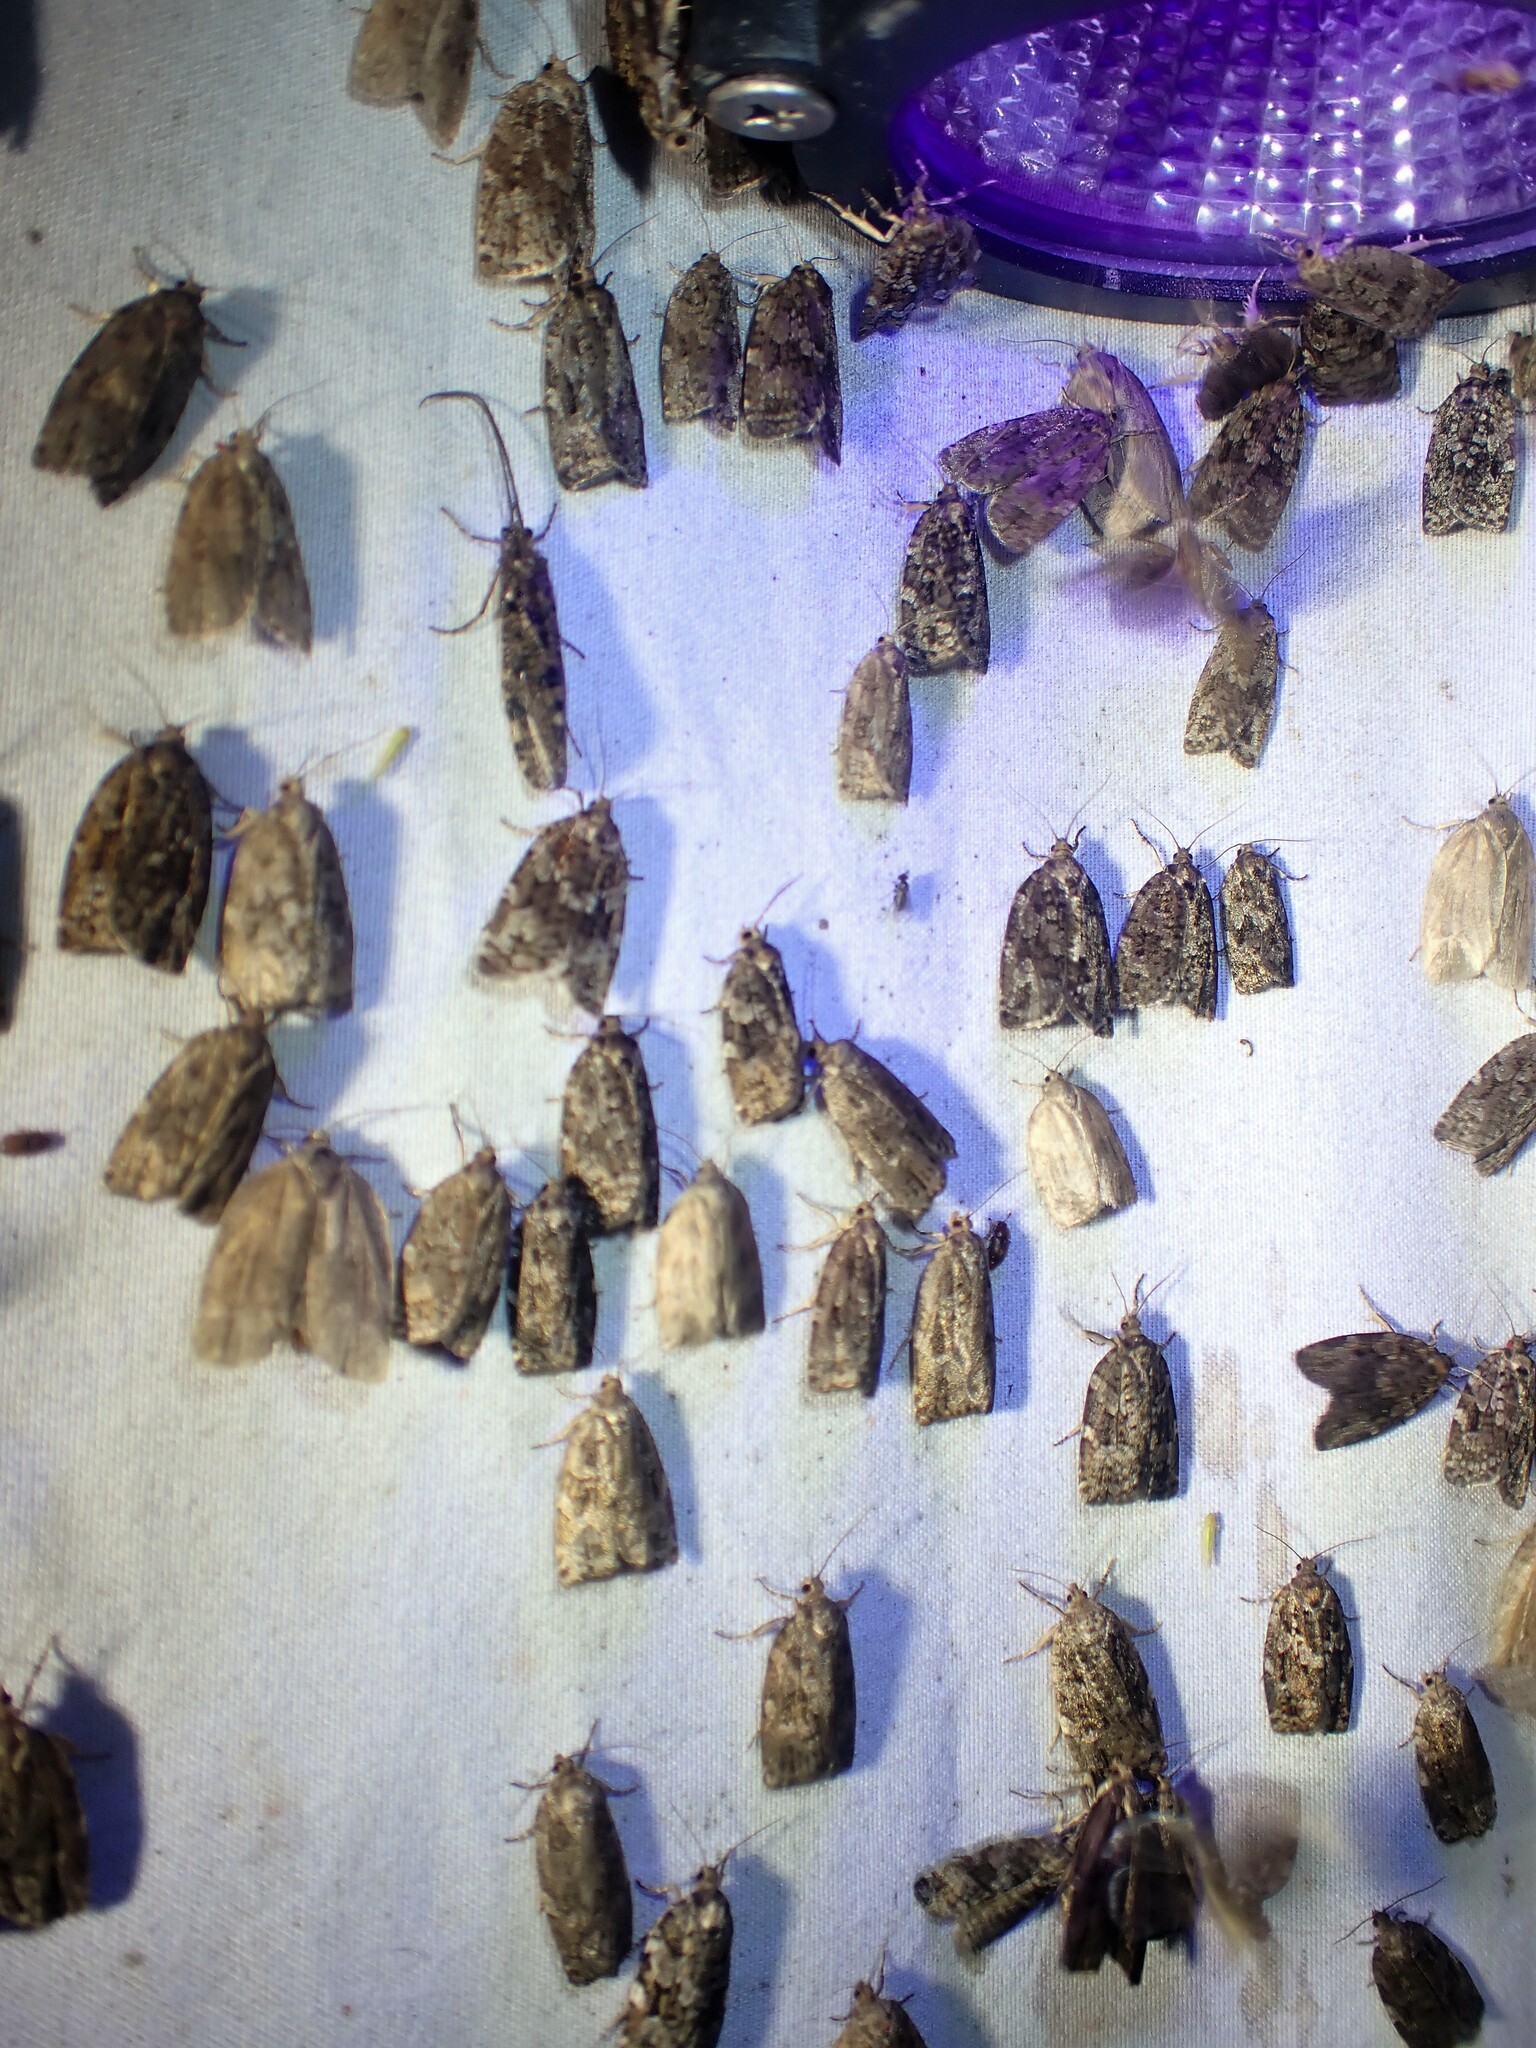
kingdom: Animalia
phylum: Arthropoda
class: Insecta
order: Lepidoptera
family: Tortricidae
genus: Choristoneura
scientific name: Choristoneura fumiferana
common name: Spruce budworm
